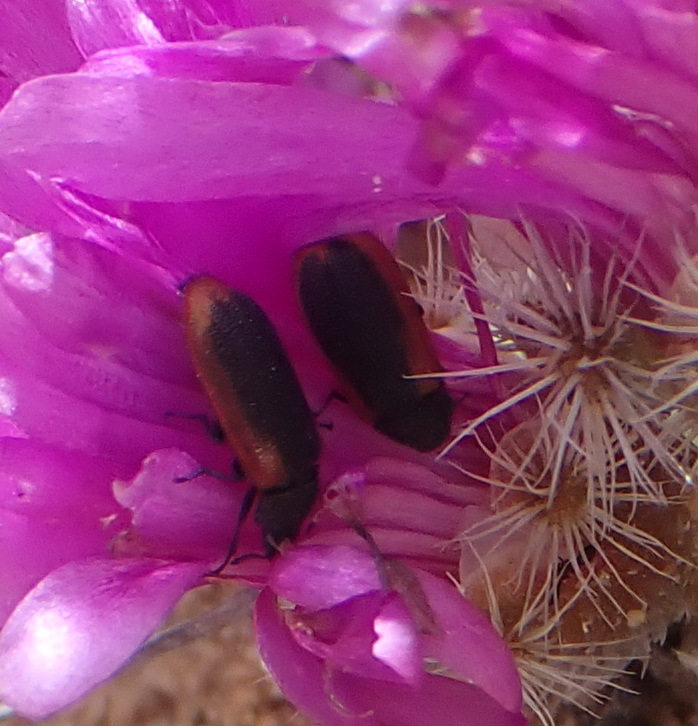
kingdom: Animalia
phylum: Arthropoda
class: Insecta
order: Coleoptera
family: Melyridae
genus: Melyris
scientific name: Melyris
